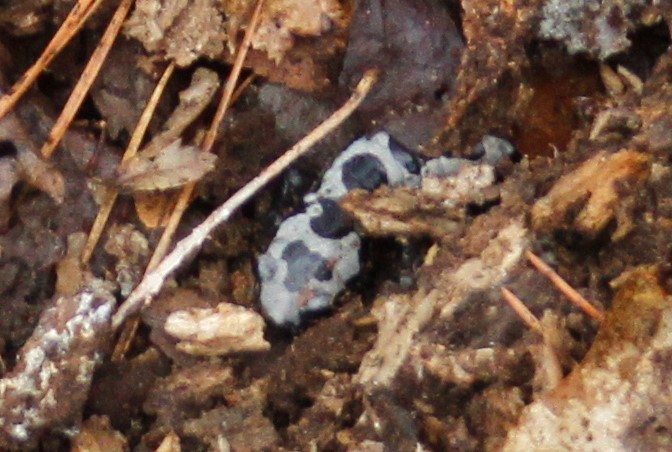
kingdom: Animalia
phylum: Chordata
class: Amphibia
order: Caudata
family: Ambystomatidae
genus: Ambystoma
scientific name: Ambystoma opacum
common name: Marbled salamander
